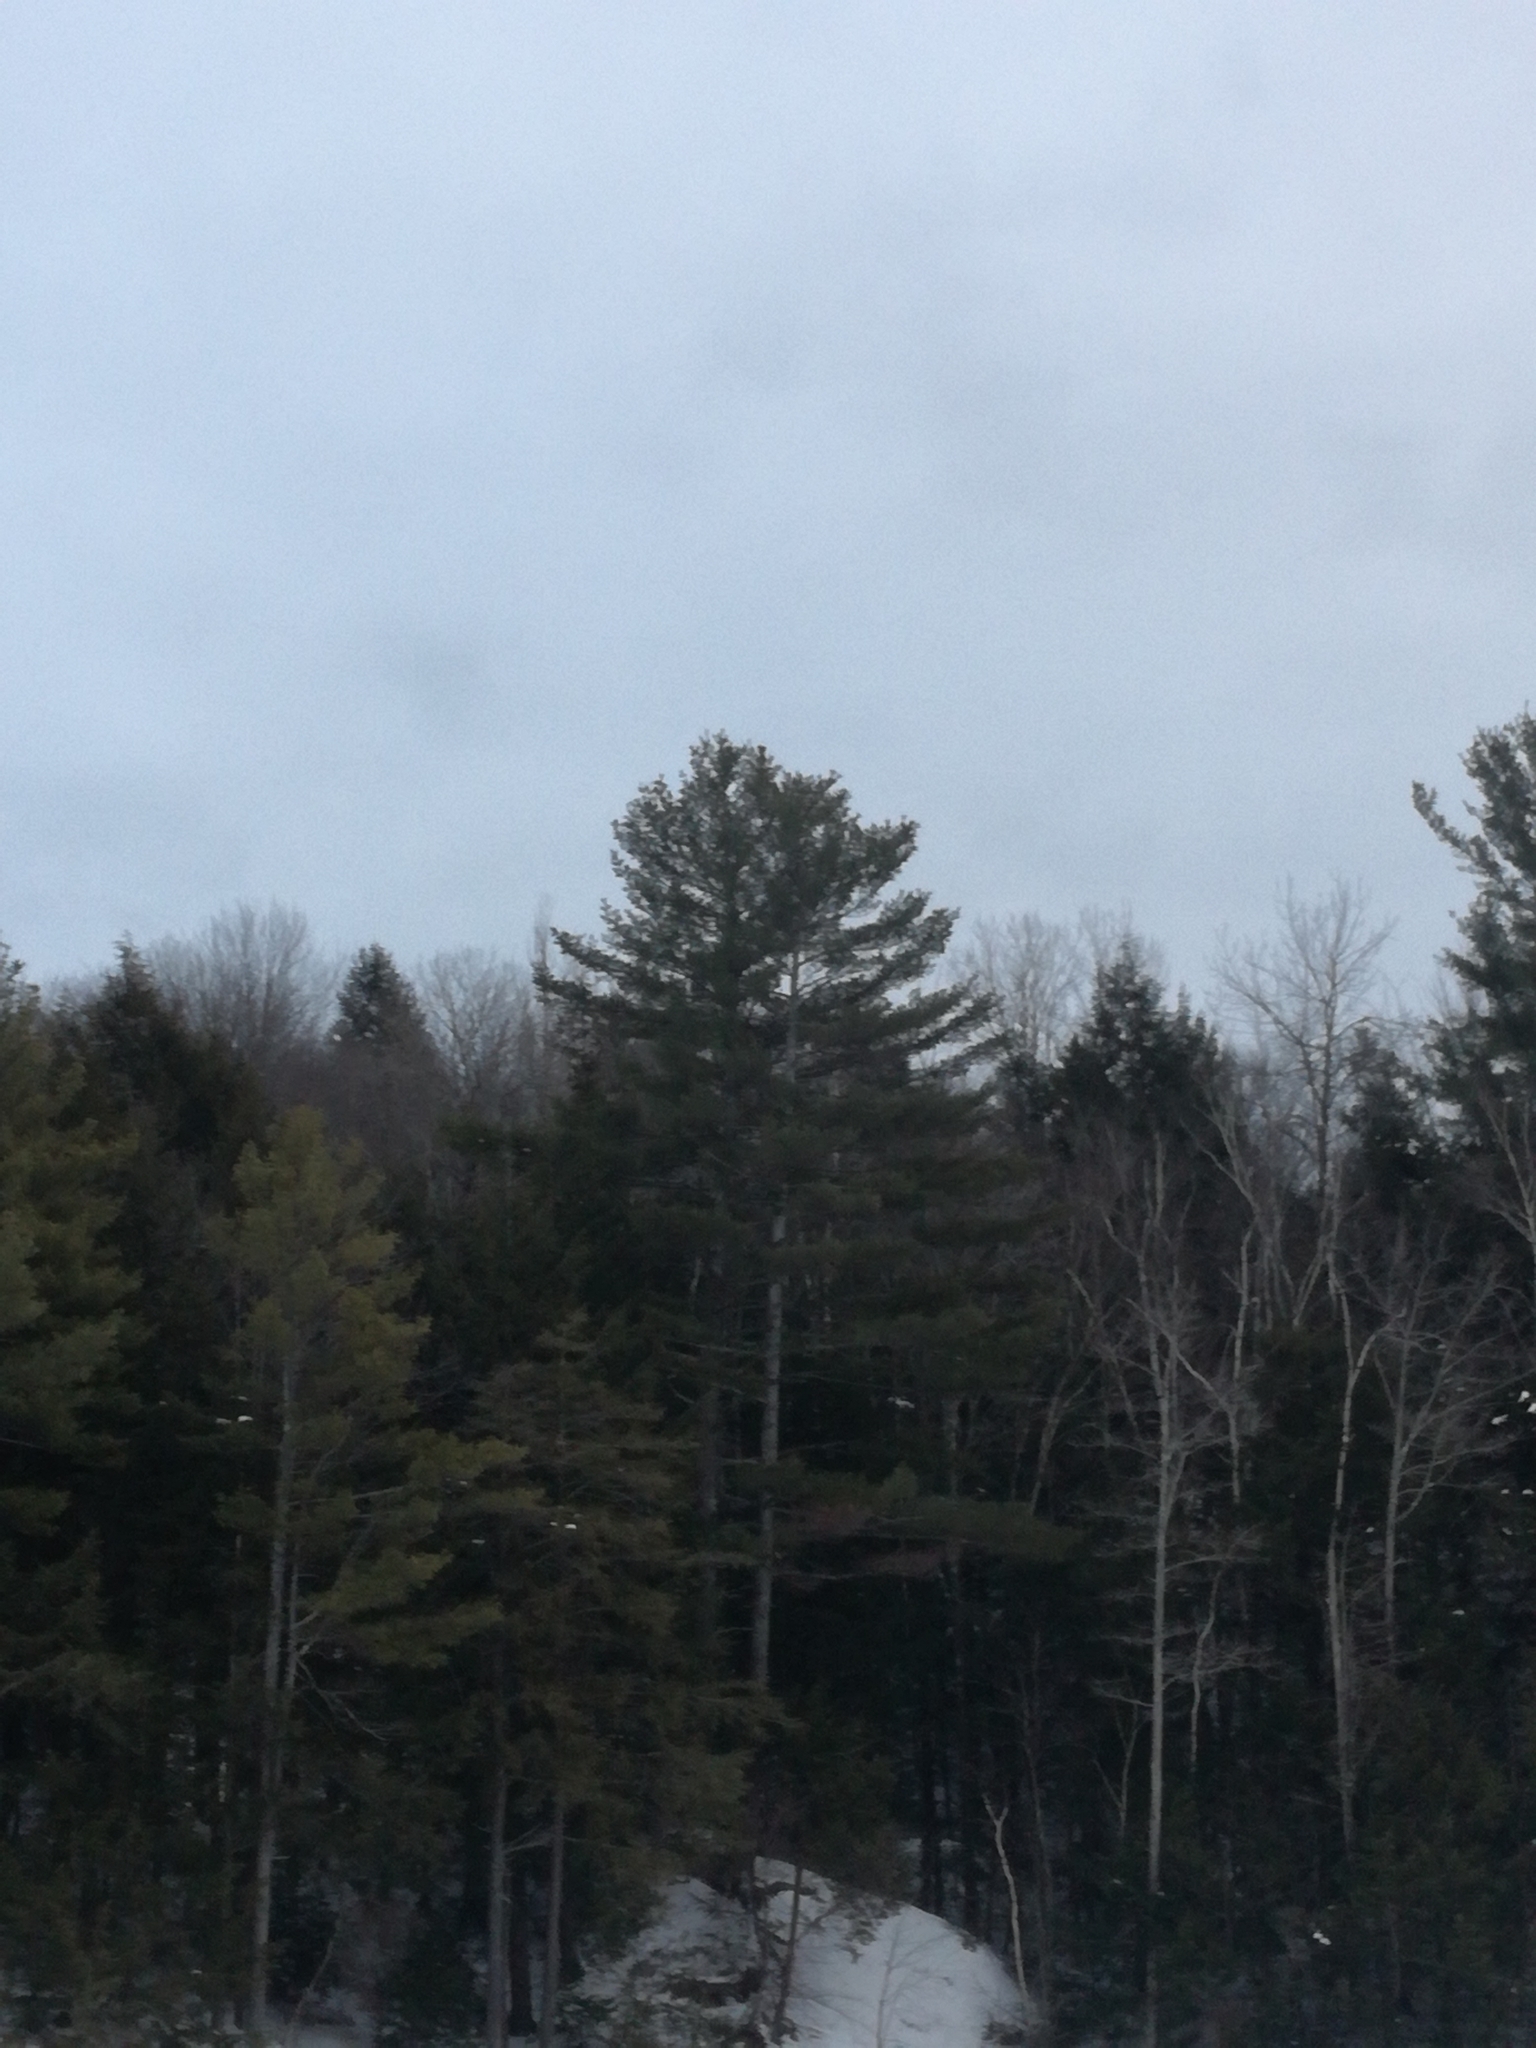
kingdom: Plantae
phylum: Tracheophyta
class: Pinopsida
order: Pinales
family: Pinaceae
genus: Pinus
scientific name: Pinus strobus
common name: Weymouth pine
